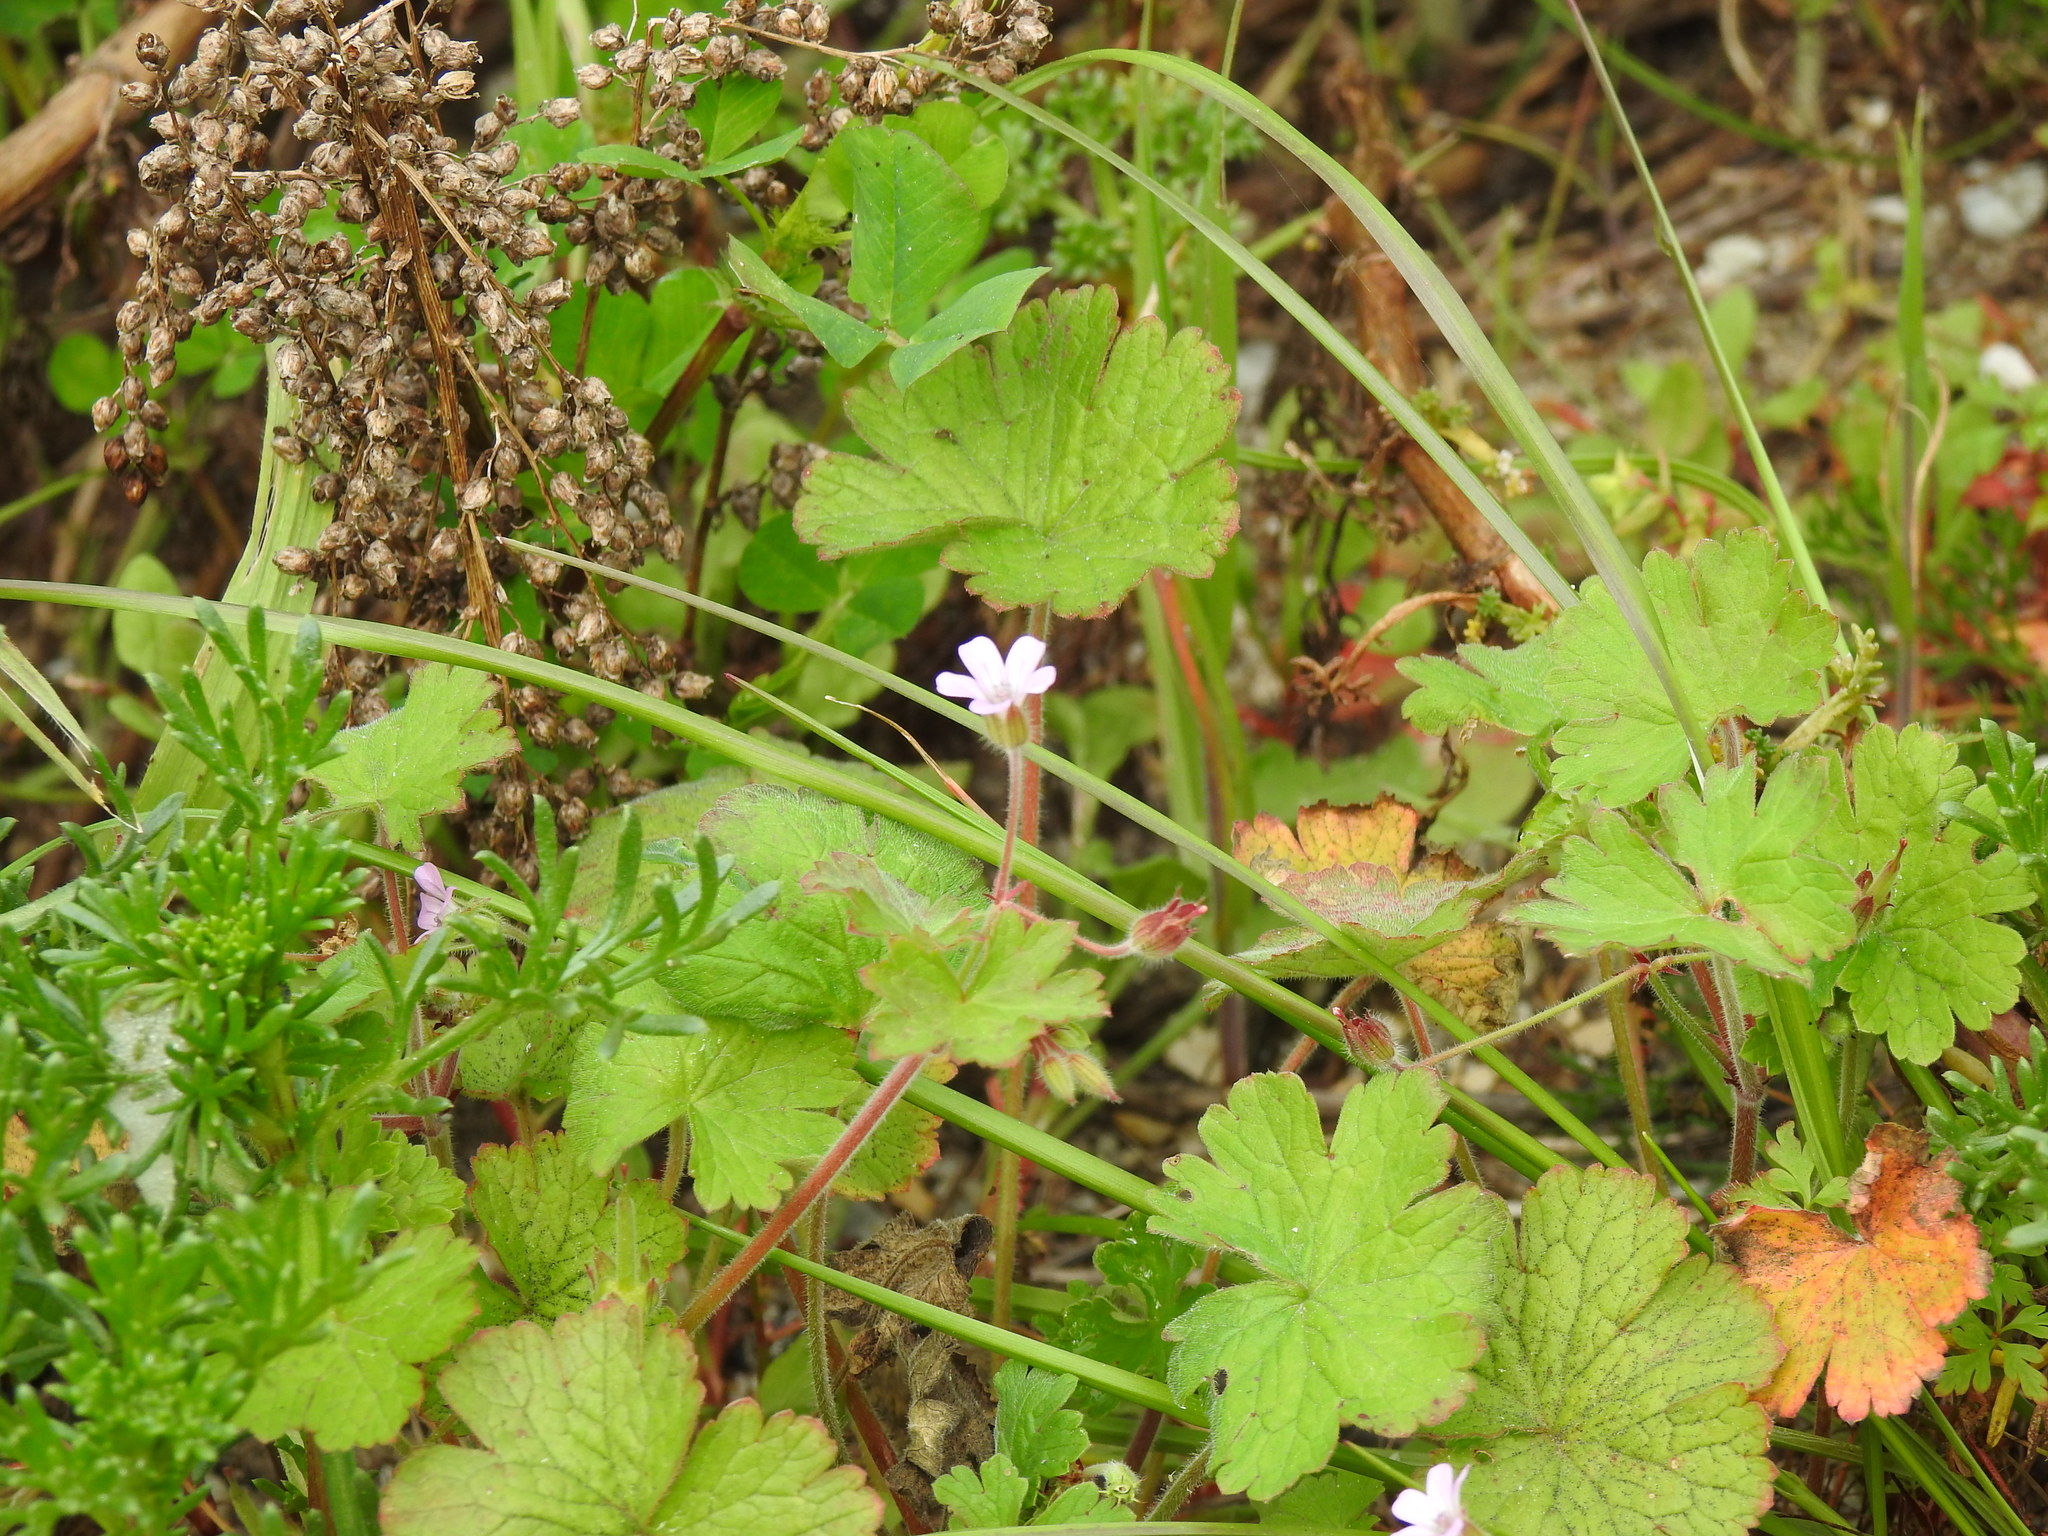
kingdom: Plantae
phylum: Tracheophyta
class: Magnoliopsida
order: Geraniales
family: Geraniaceae
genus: Geranium
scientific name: Geranium rotundifolium
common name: Round-leaved crane's-bill
